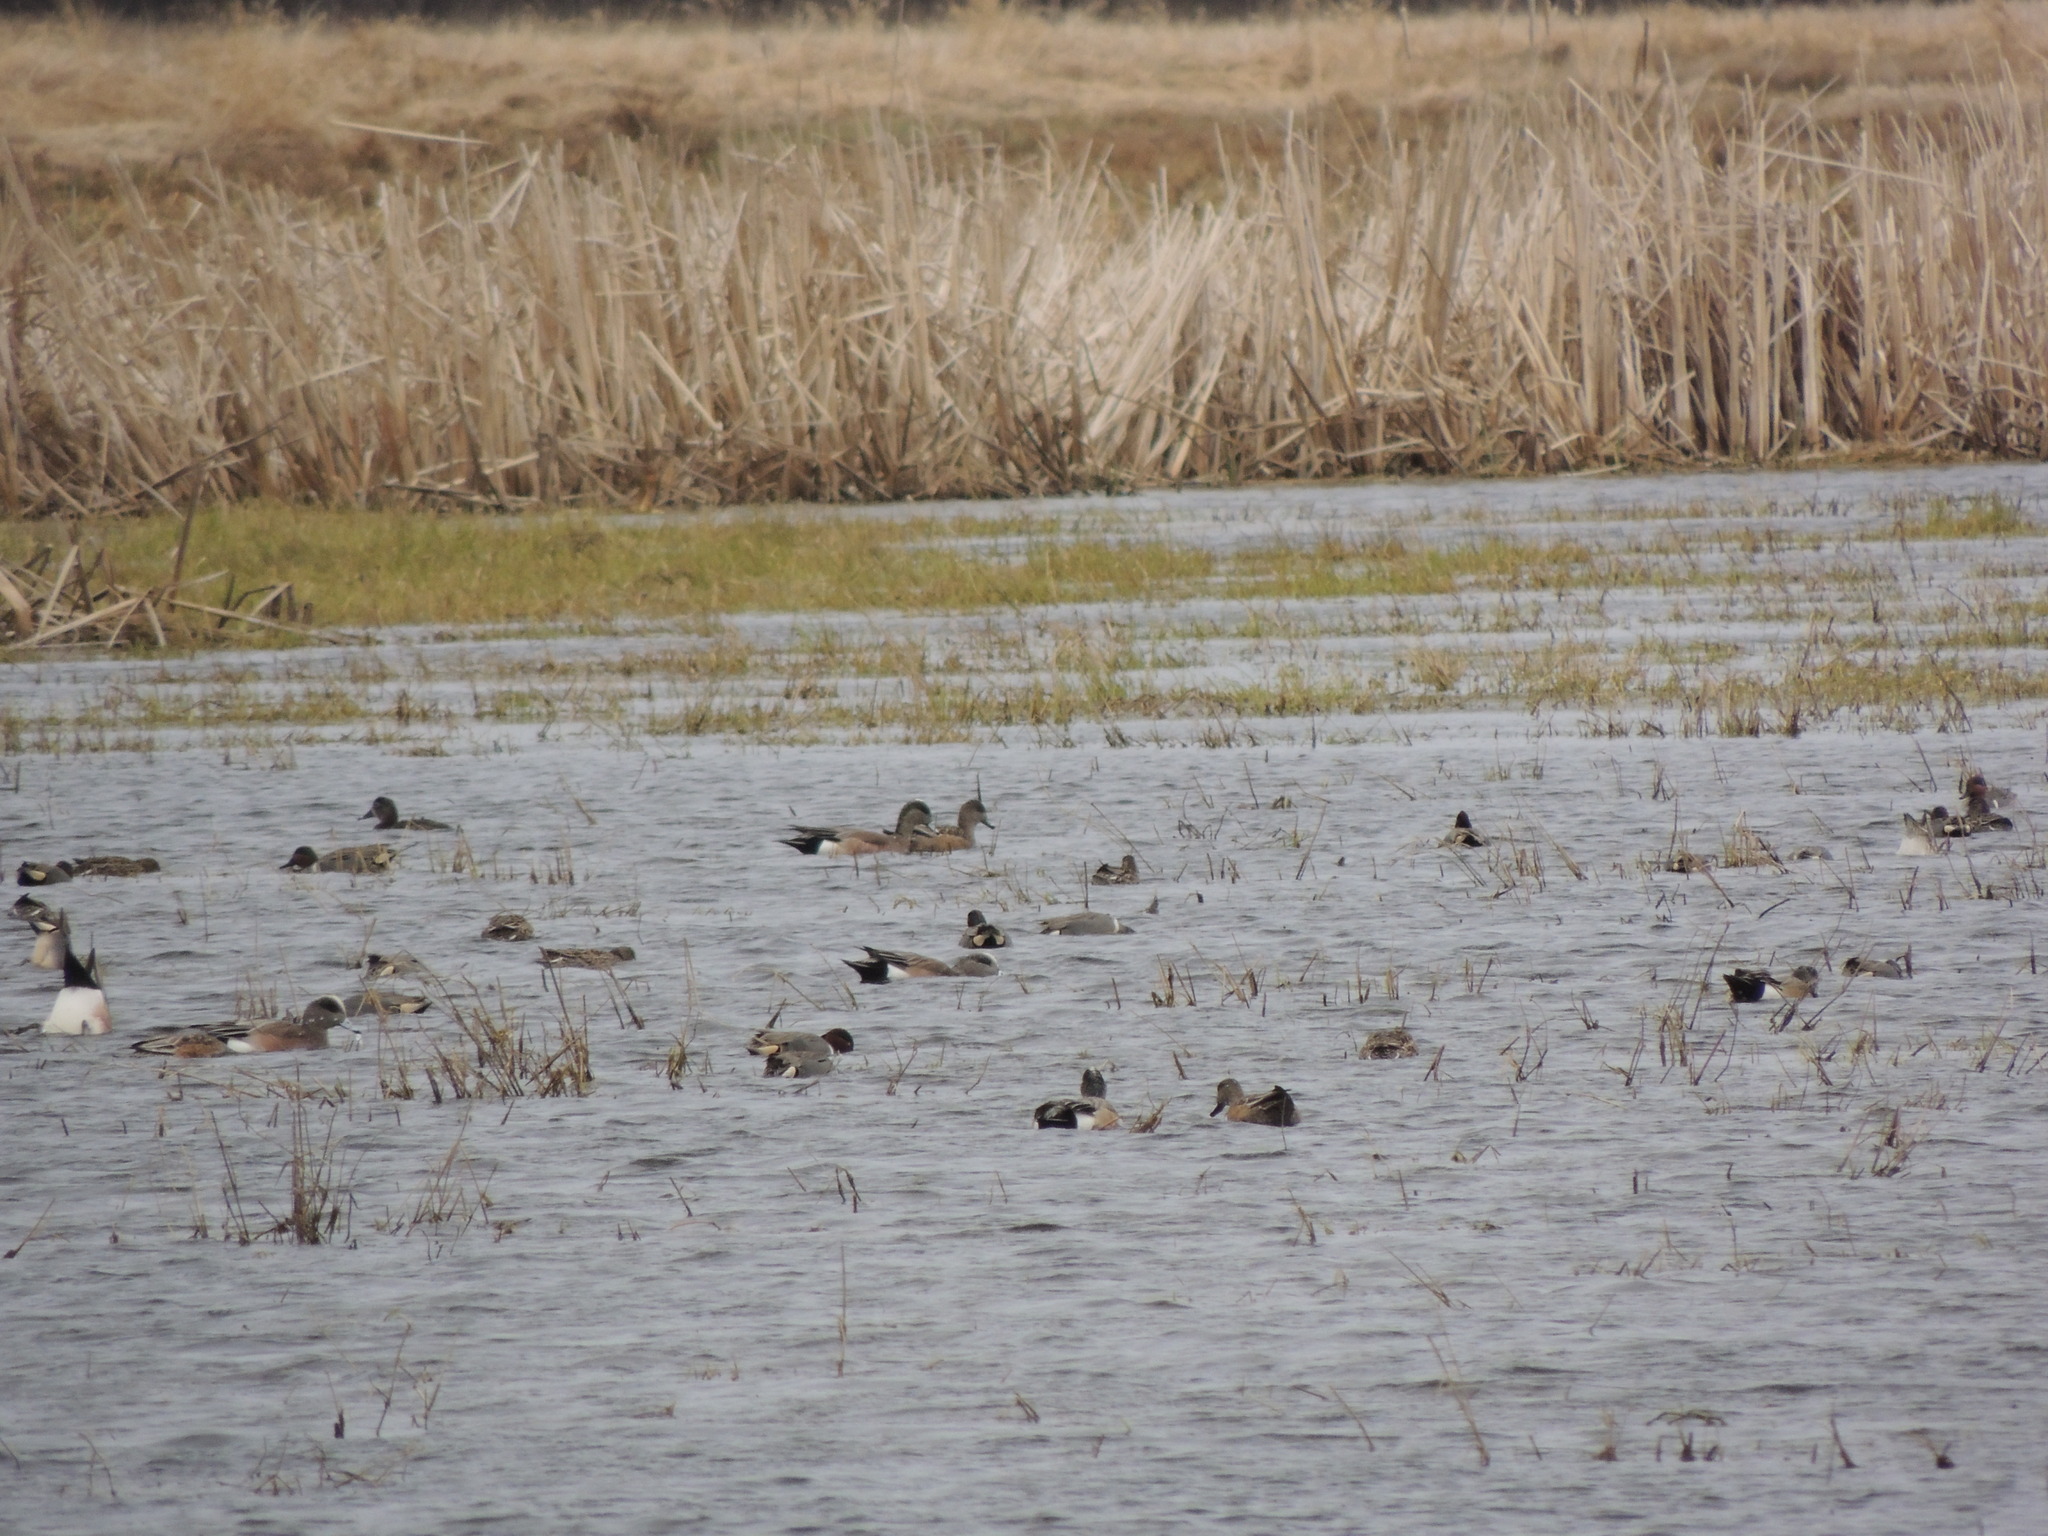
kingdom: Animalia
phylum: Chordata
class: Aves
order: Anseriformes
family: Anatidae
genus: Mareca
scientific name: Mareca americana
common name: American wigeon
